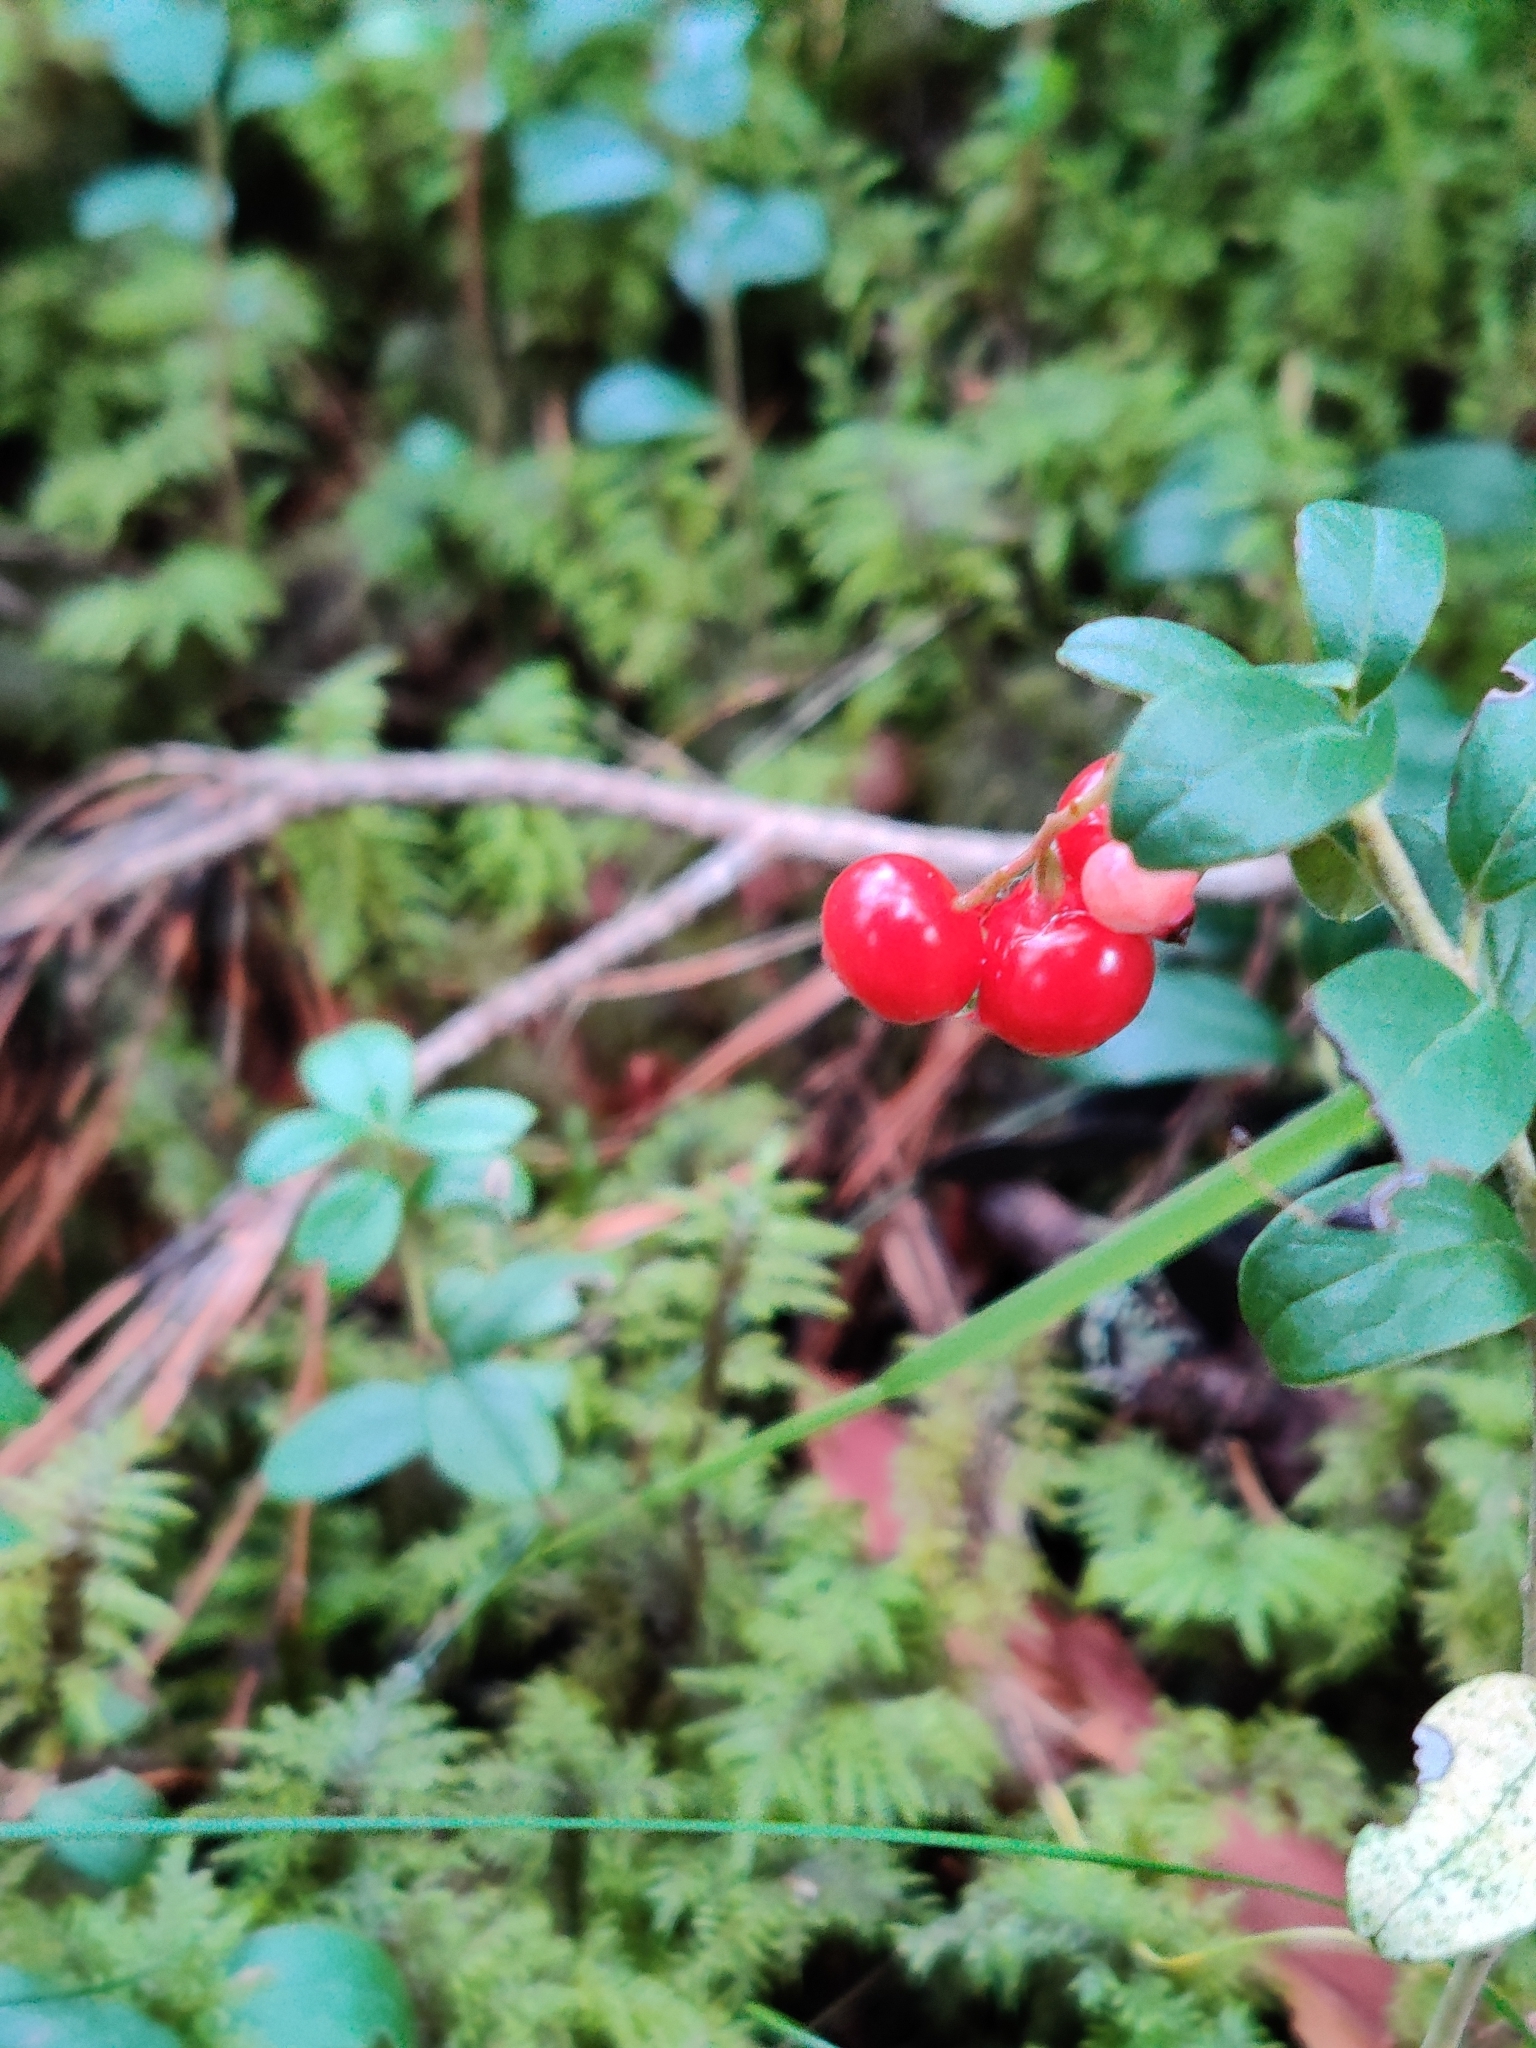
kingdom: Plantae
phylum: Tracheophyta
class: Magnoliopsida
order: Ericales
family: Ericaceae
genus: Vaccinium
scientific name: Vaccinium vitis-idaea
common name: Cowberry
